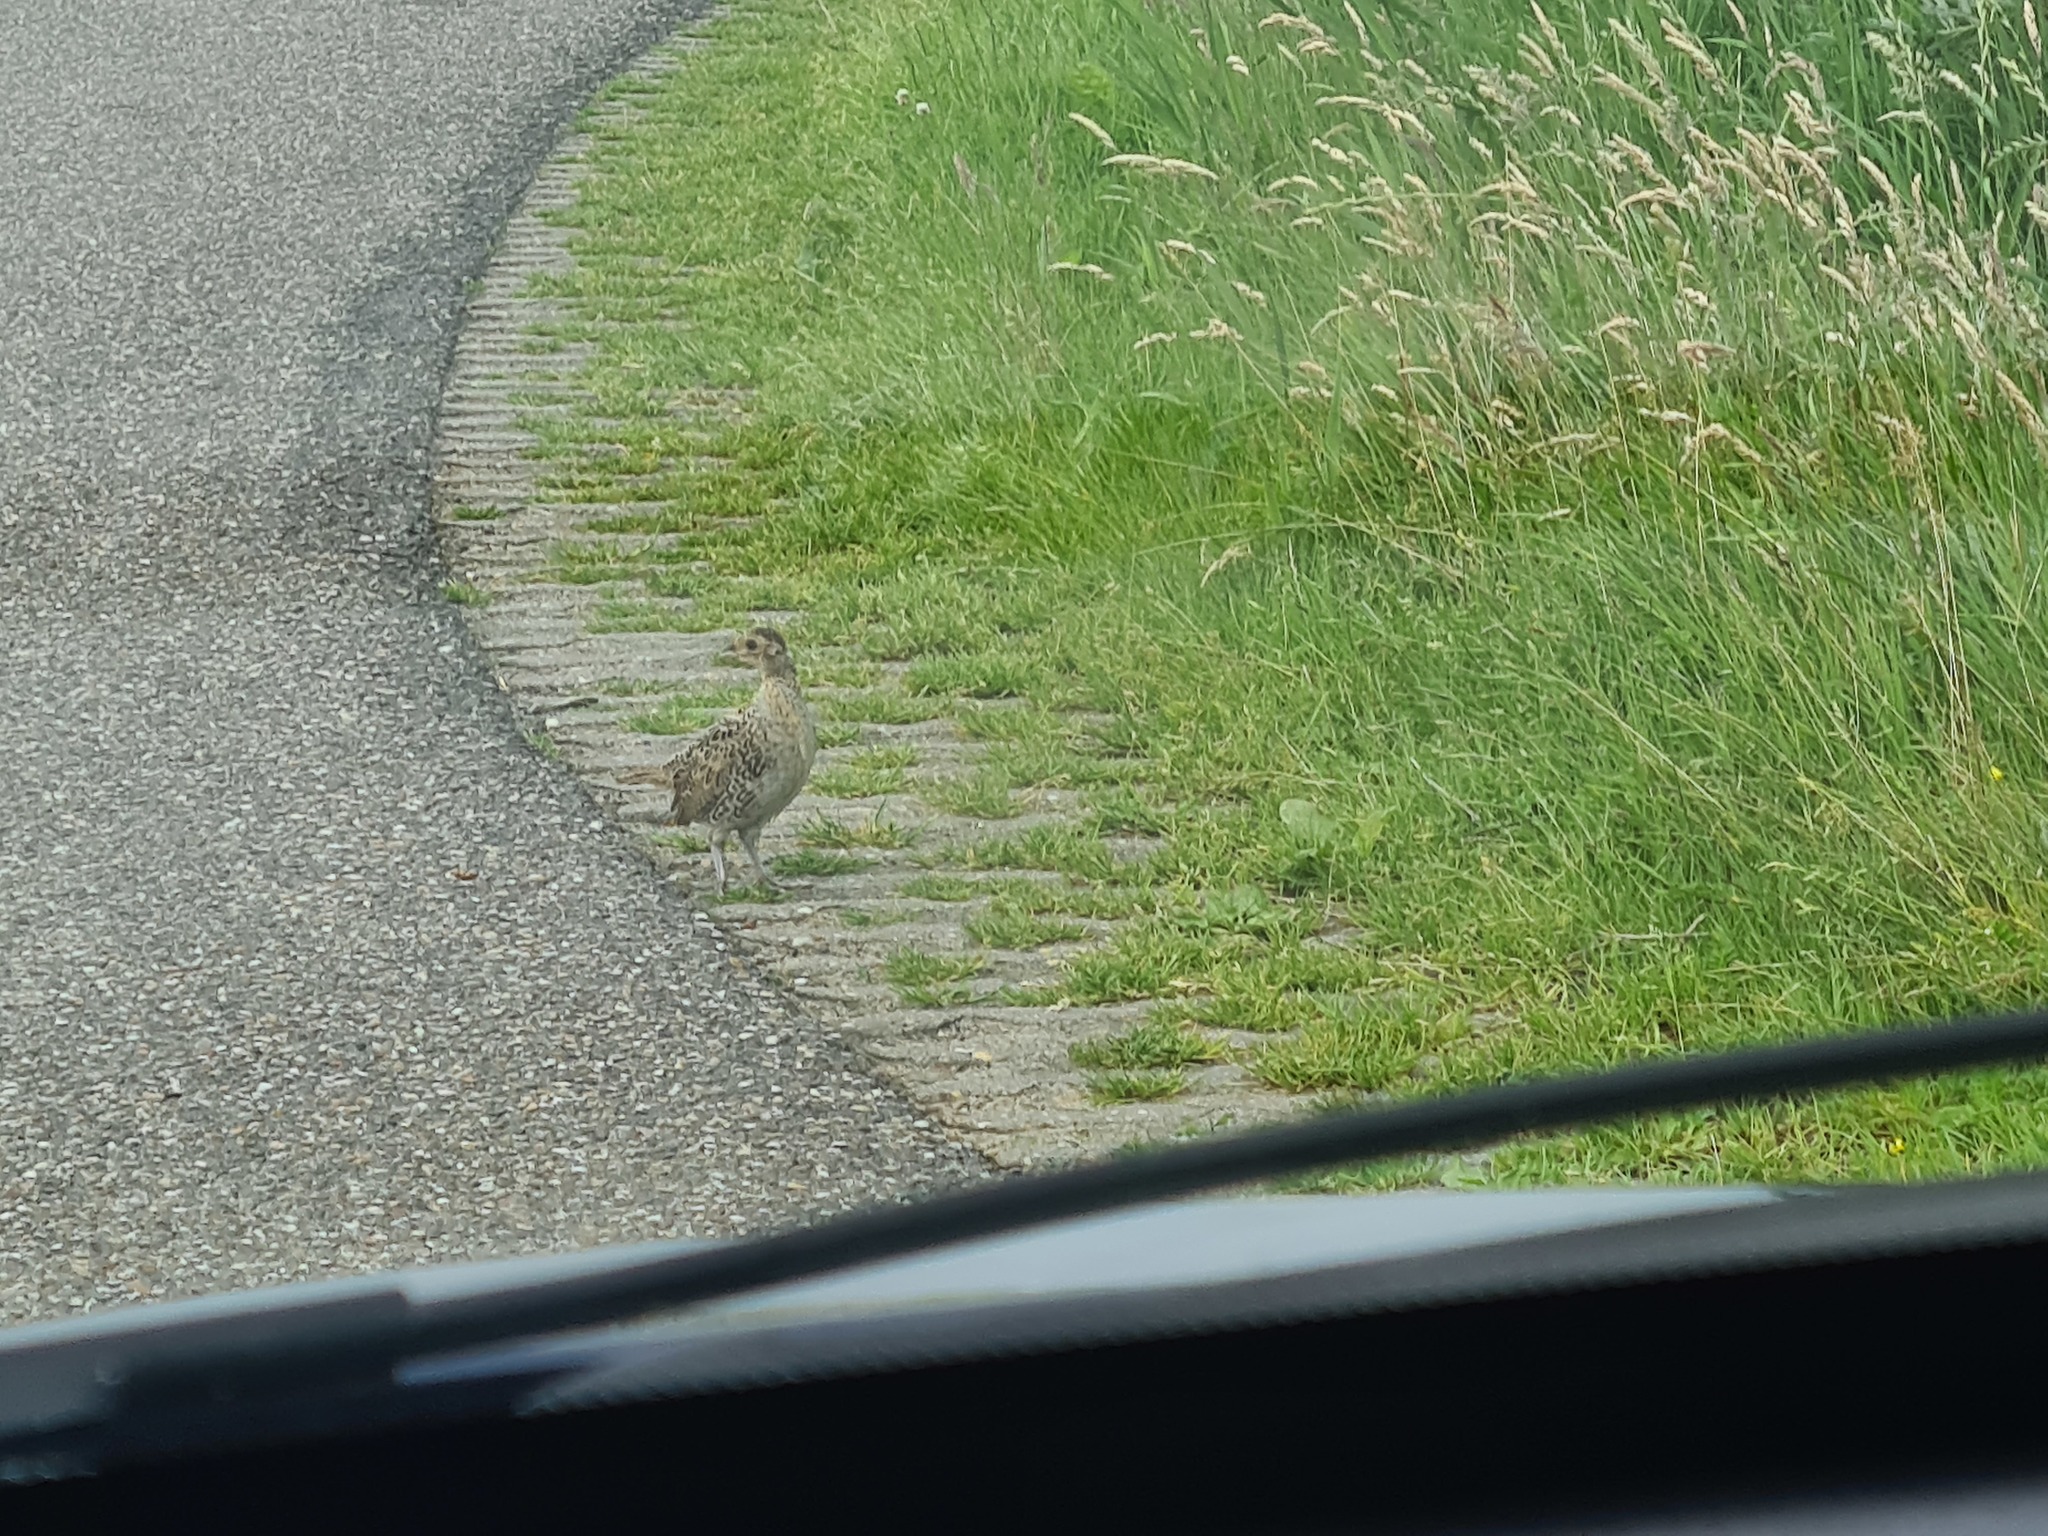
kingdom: Animalia
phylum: Chordata
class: Aves
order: Galliformes
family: Phasianidae
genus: Phasianus
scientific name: Phasianus colchicus
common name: Common pheasant
